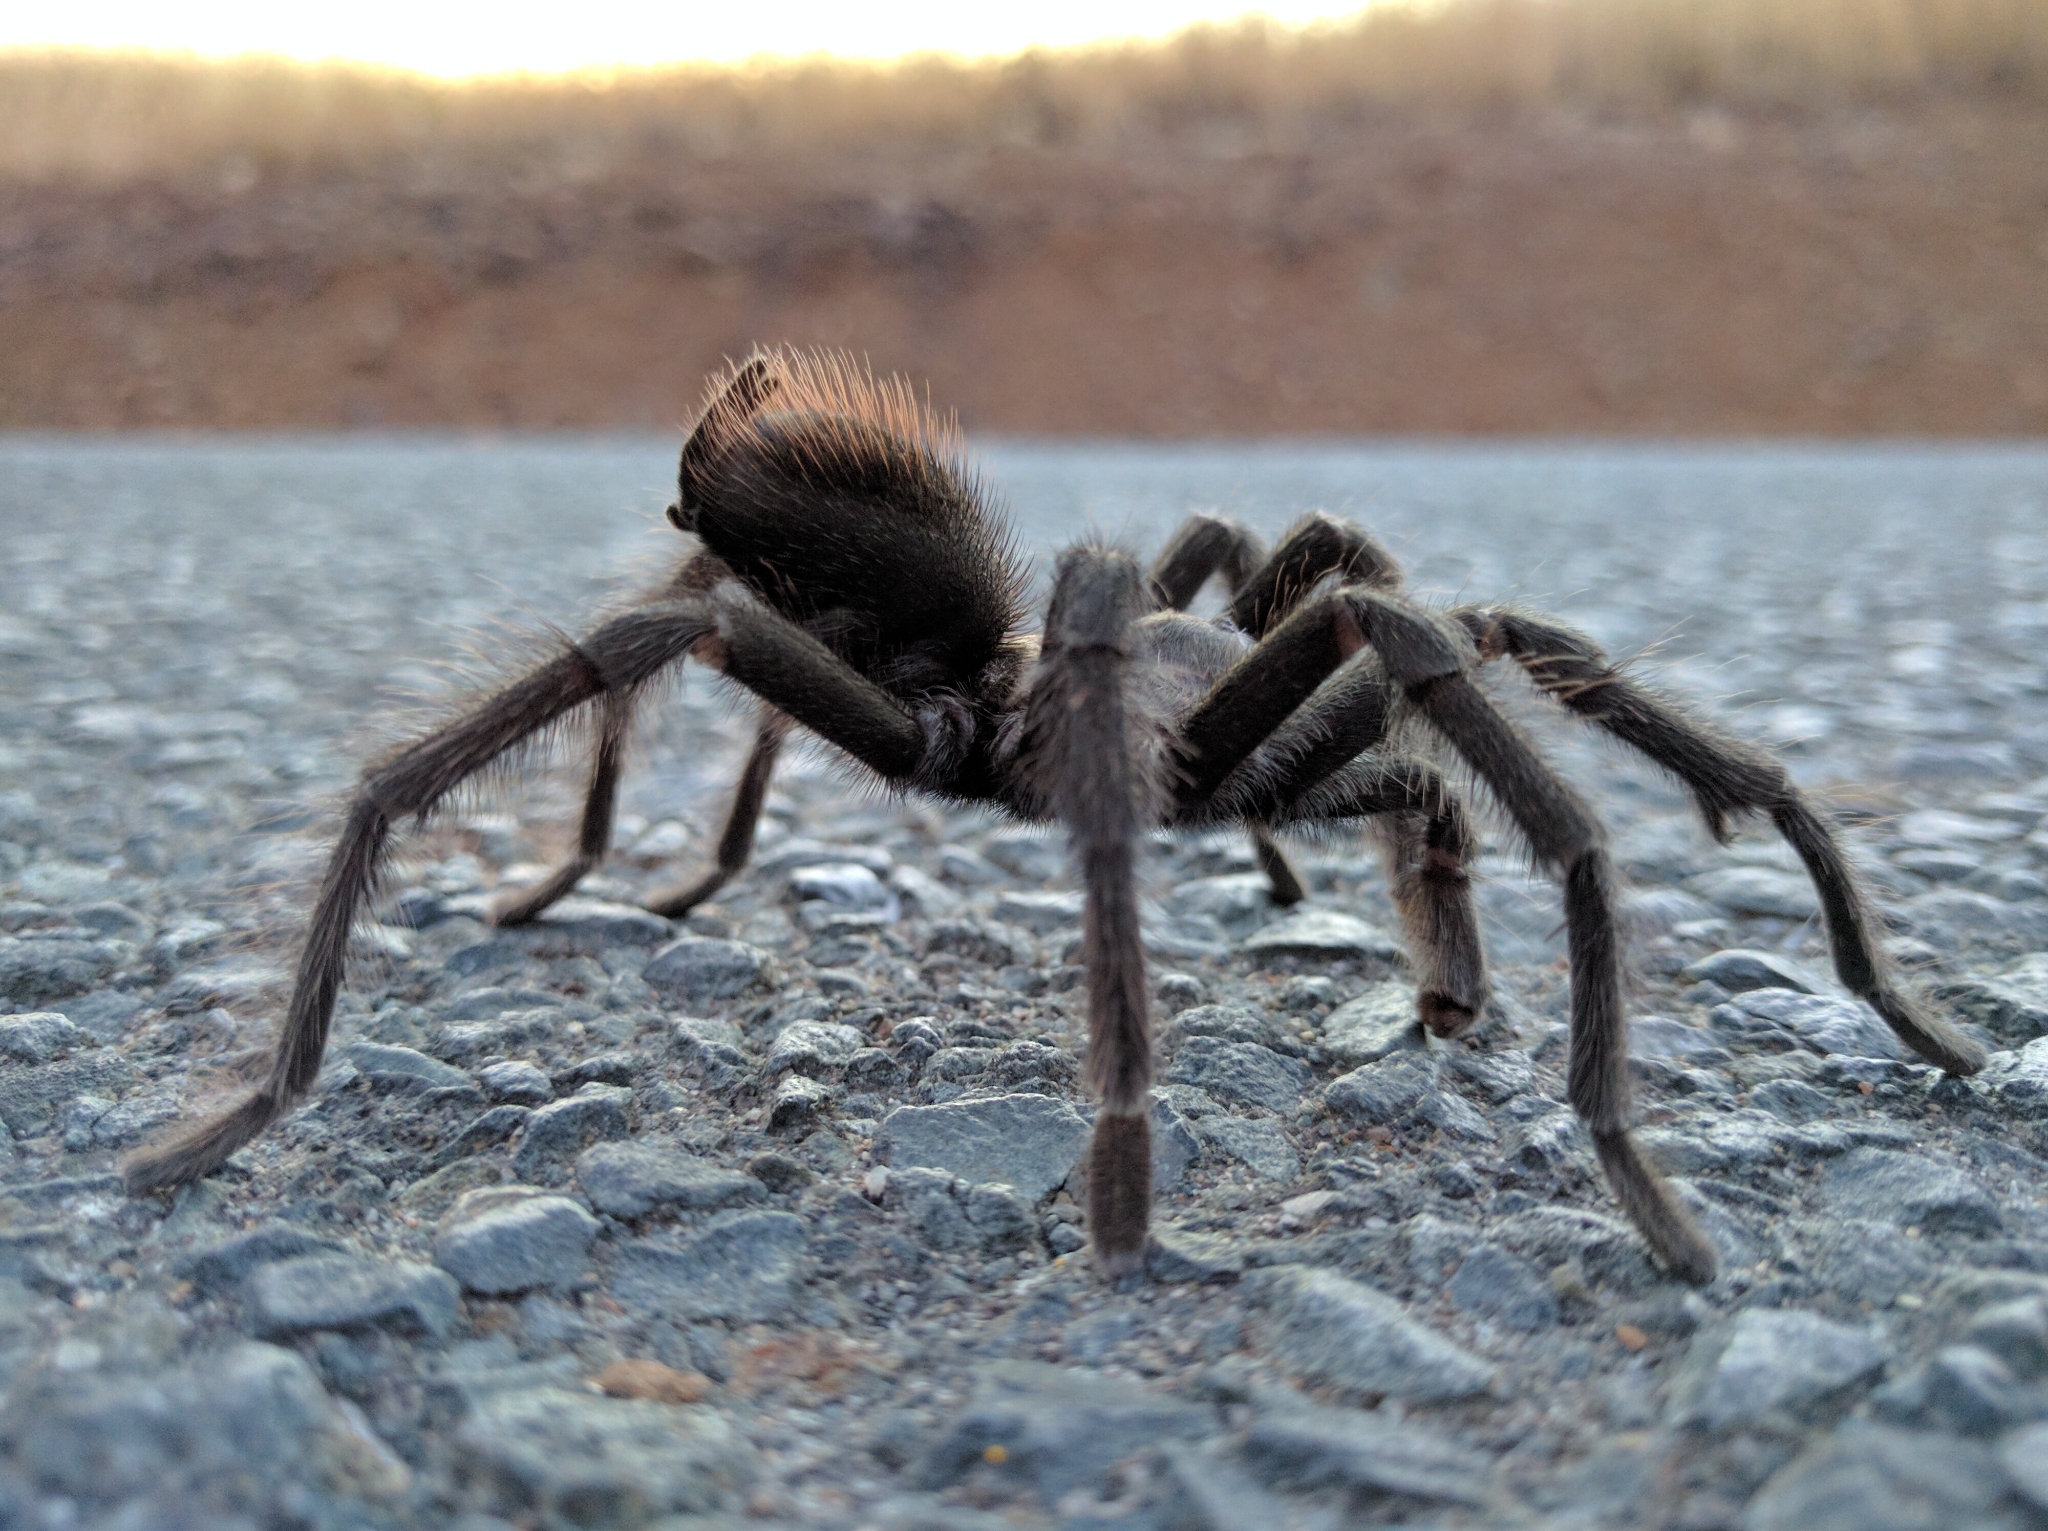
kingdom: Animalia
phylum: Arthropoda
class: Arachnida
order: Araneae
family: Theraphosidae
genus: Aphonopelma
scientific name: Aphonopelma iodius
